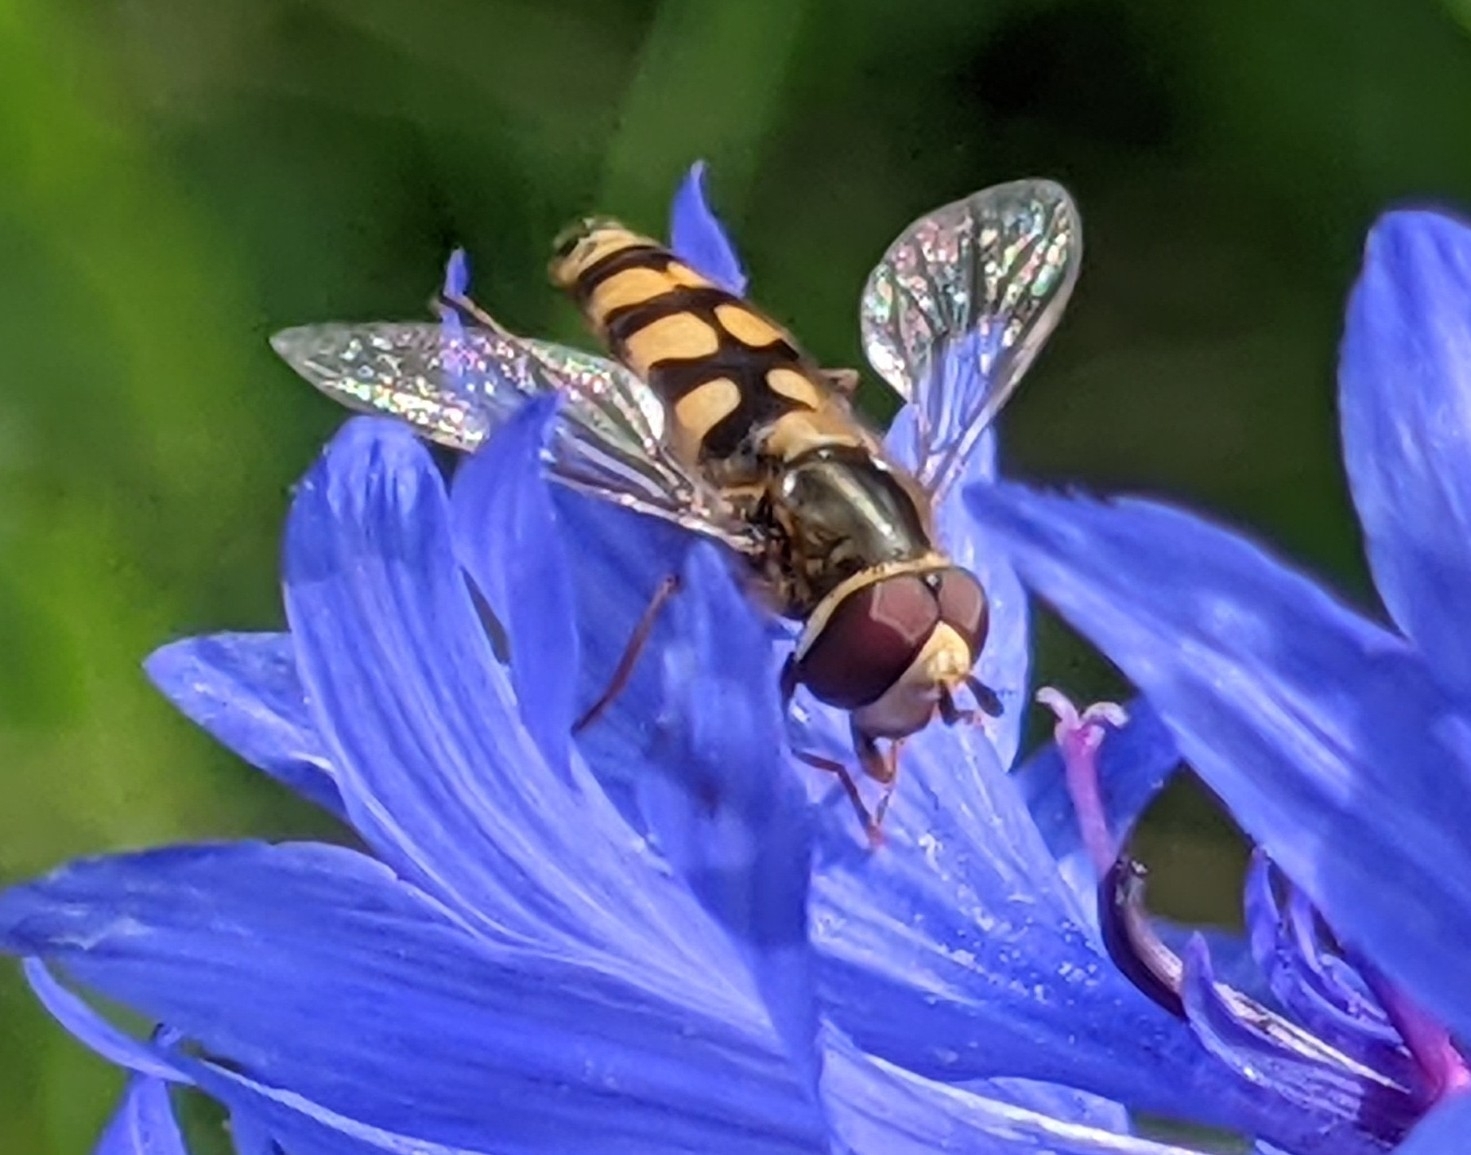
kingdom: Animalia
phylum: Arthropoda
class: Insecta
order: Diptera
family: Syrphidae
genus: Eupeodes
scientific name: Eupeodes corollae
